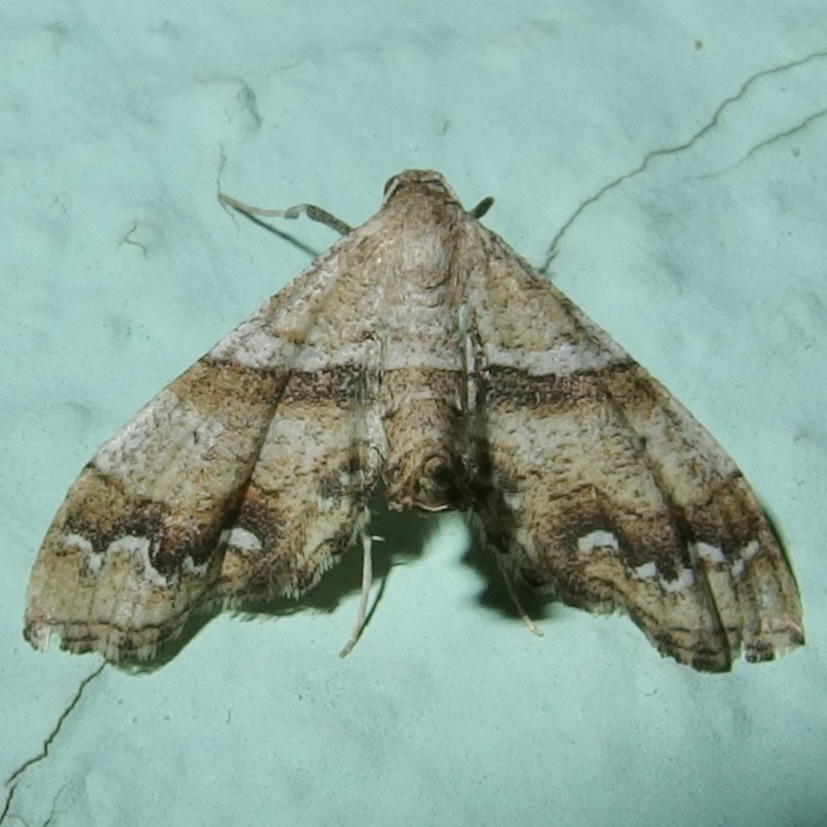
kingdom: Animalia
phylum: Arthropoda
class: Insecta
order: Lepidoptera
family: Geometridae
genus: Odontoptila
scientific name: Odontoptila obrimo
